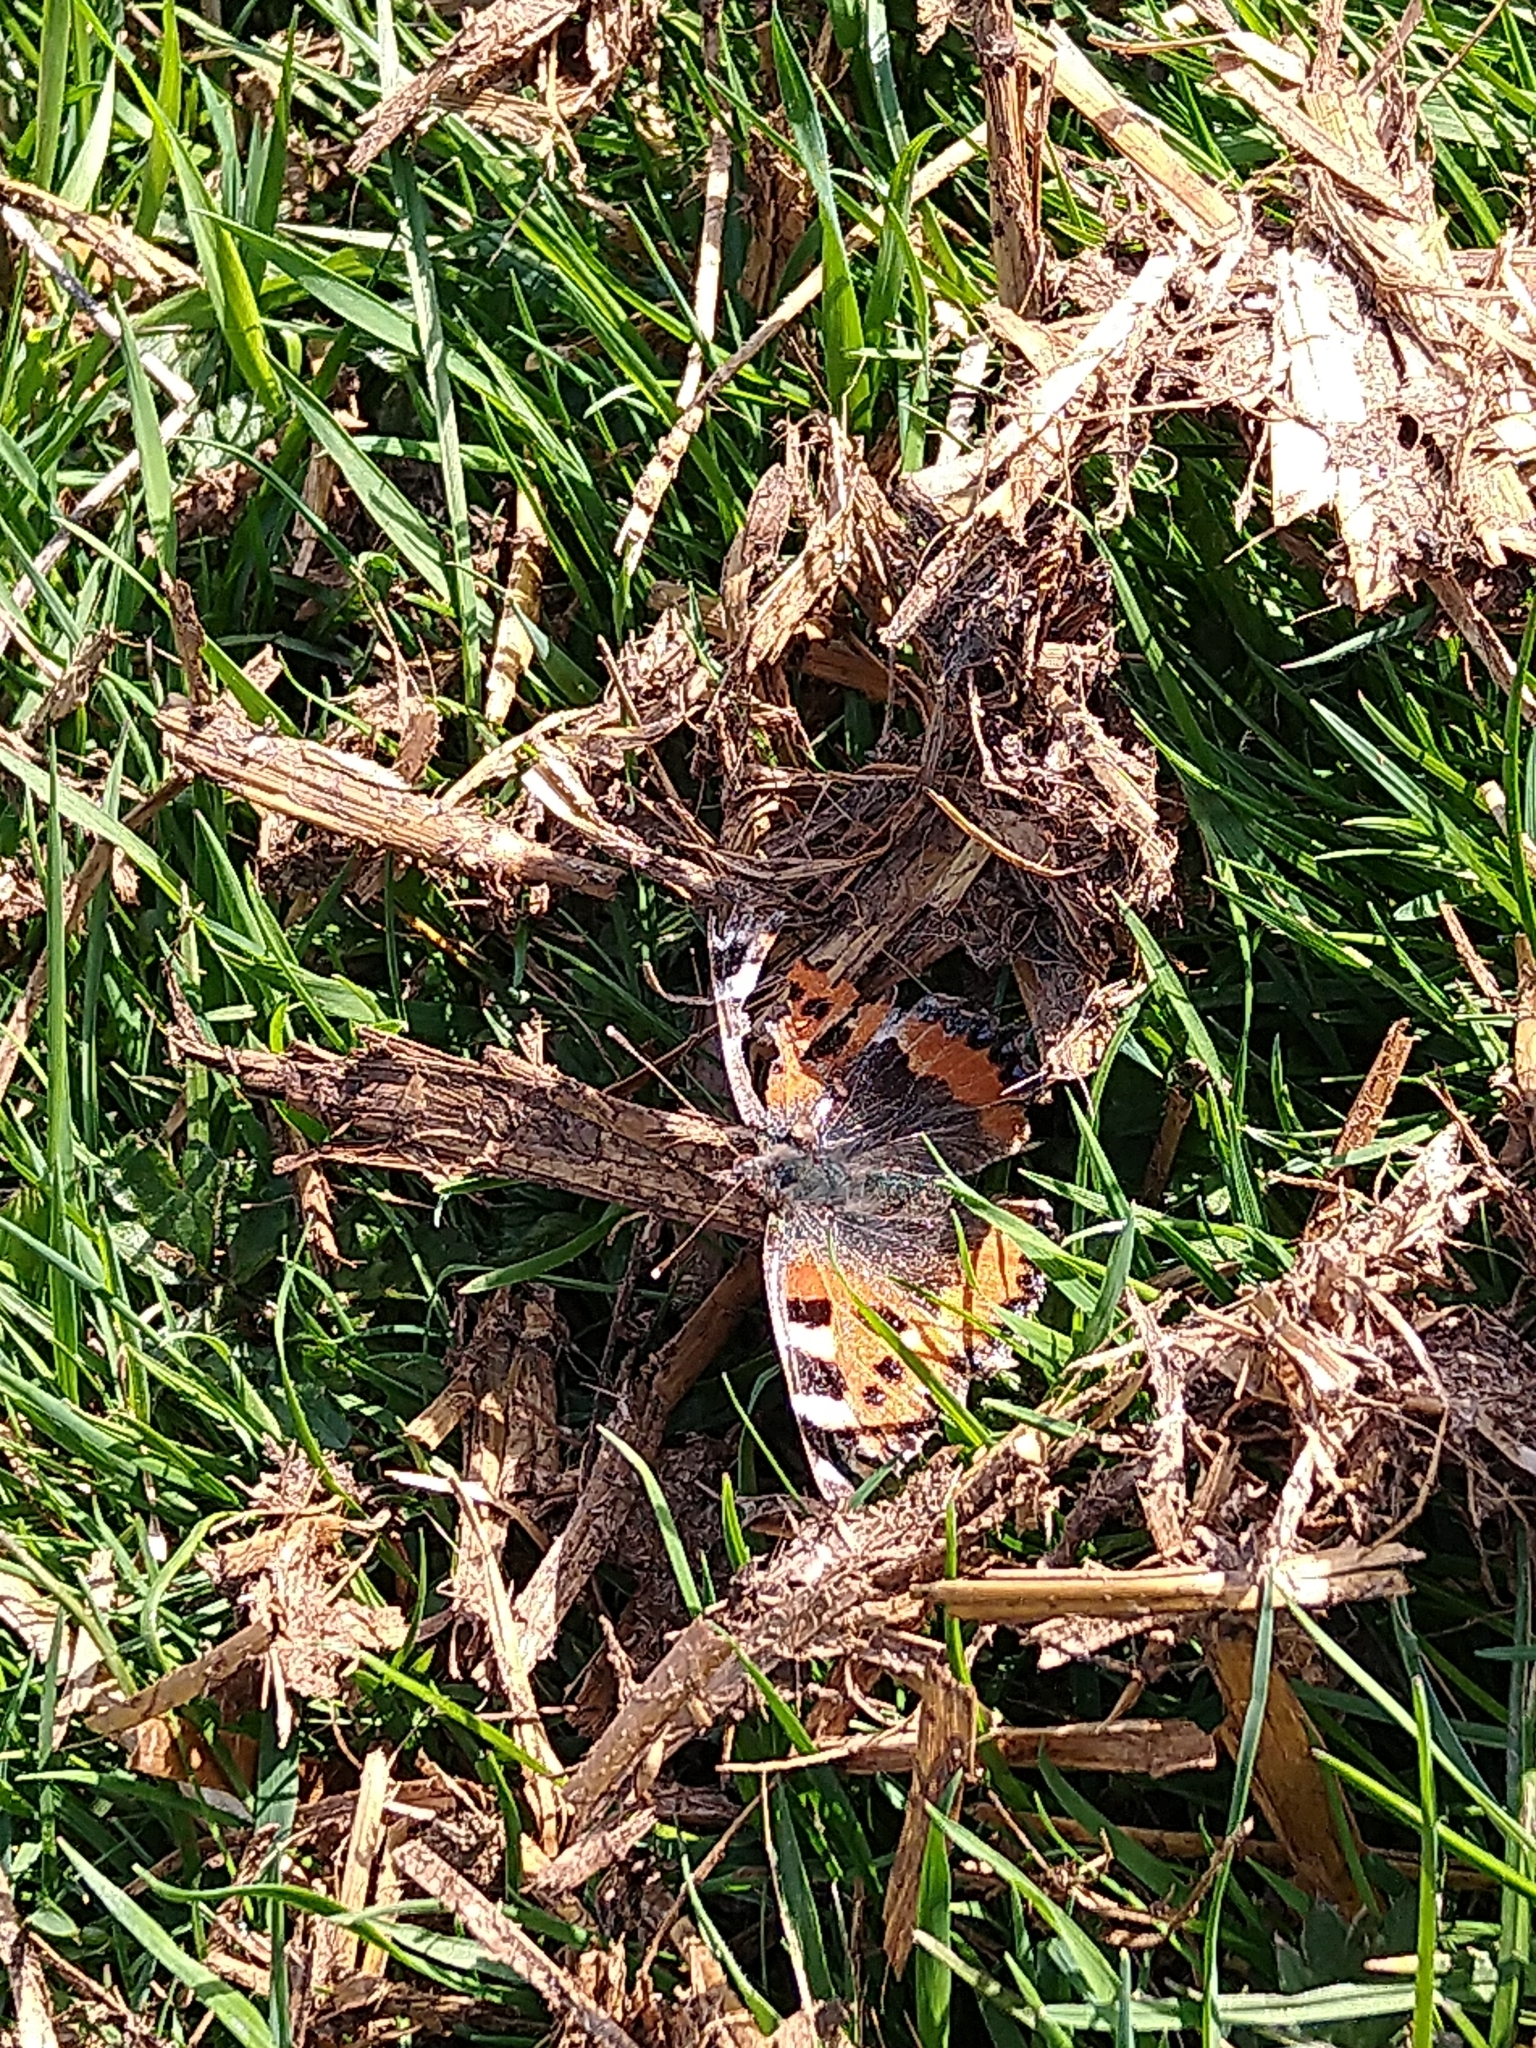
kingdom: Animalia
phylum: Arthropoda
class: Insecta
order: Lepidoptera
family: Nymphalidae
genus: Aglais
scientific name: Aglais urticae
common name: Small tortoiseshell
